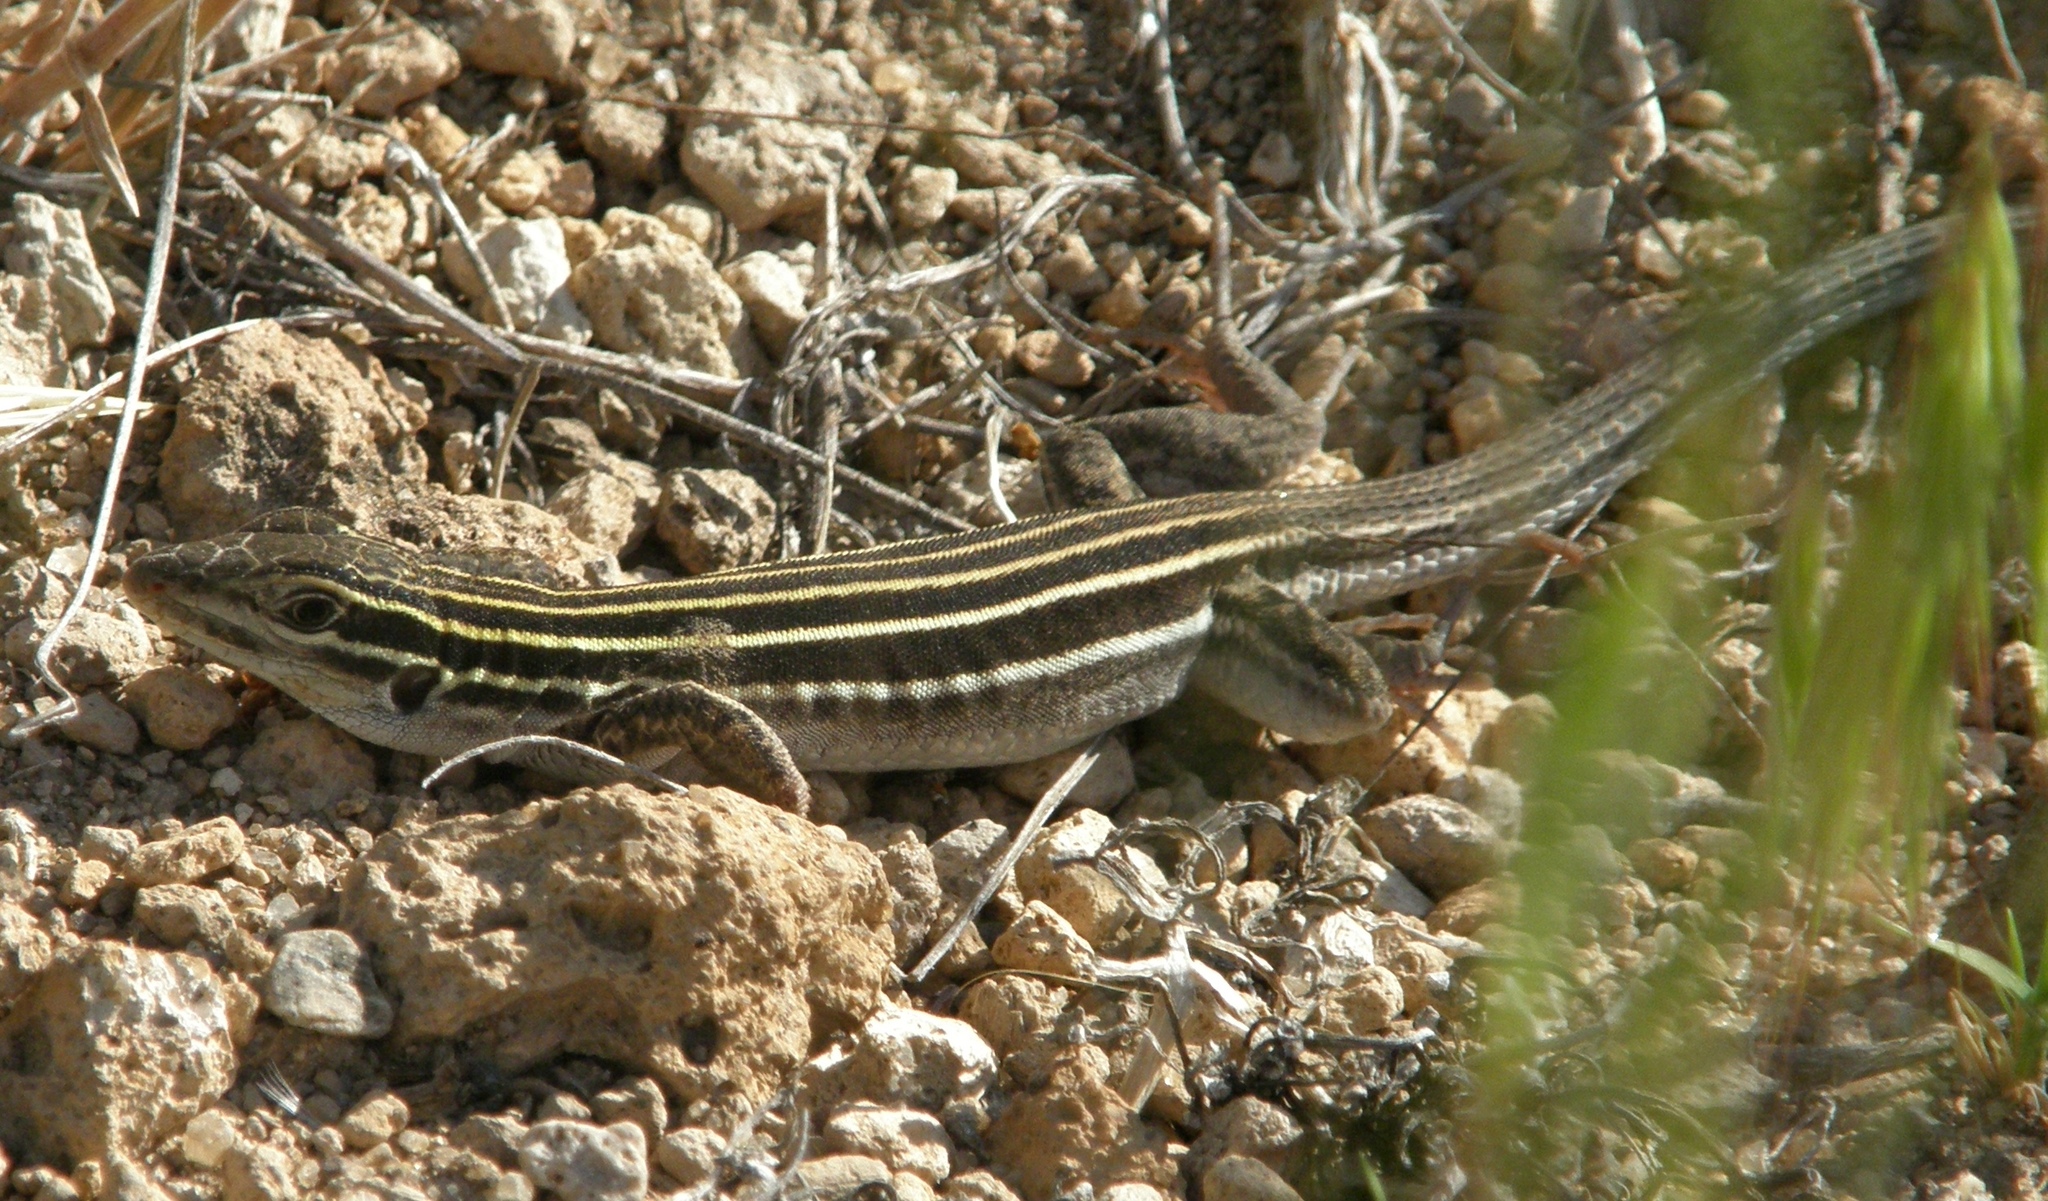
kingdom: Animalia
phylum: Chordata
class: Squamata
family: Teiidae
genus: Aspidoscelis
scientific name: Aspidoscelis velox
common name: Plateau striped whiptail
